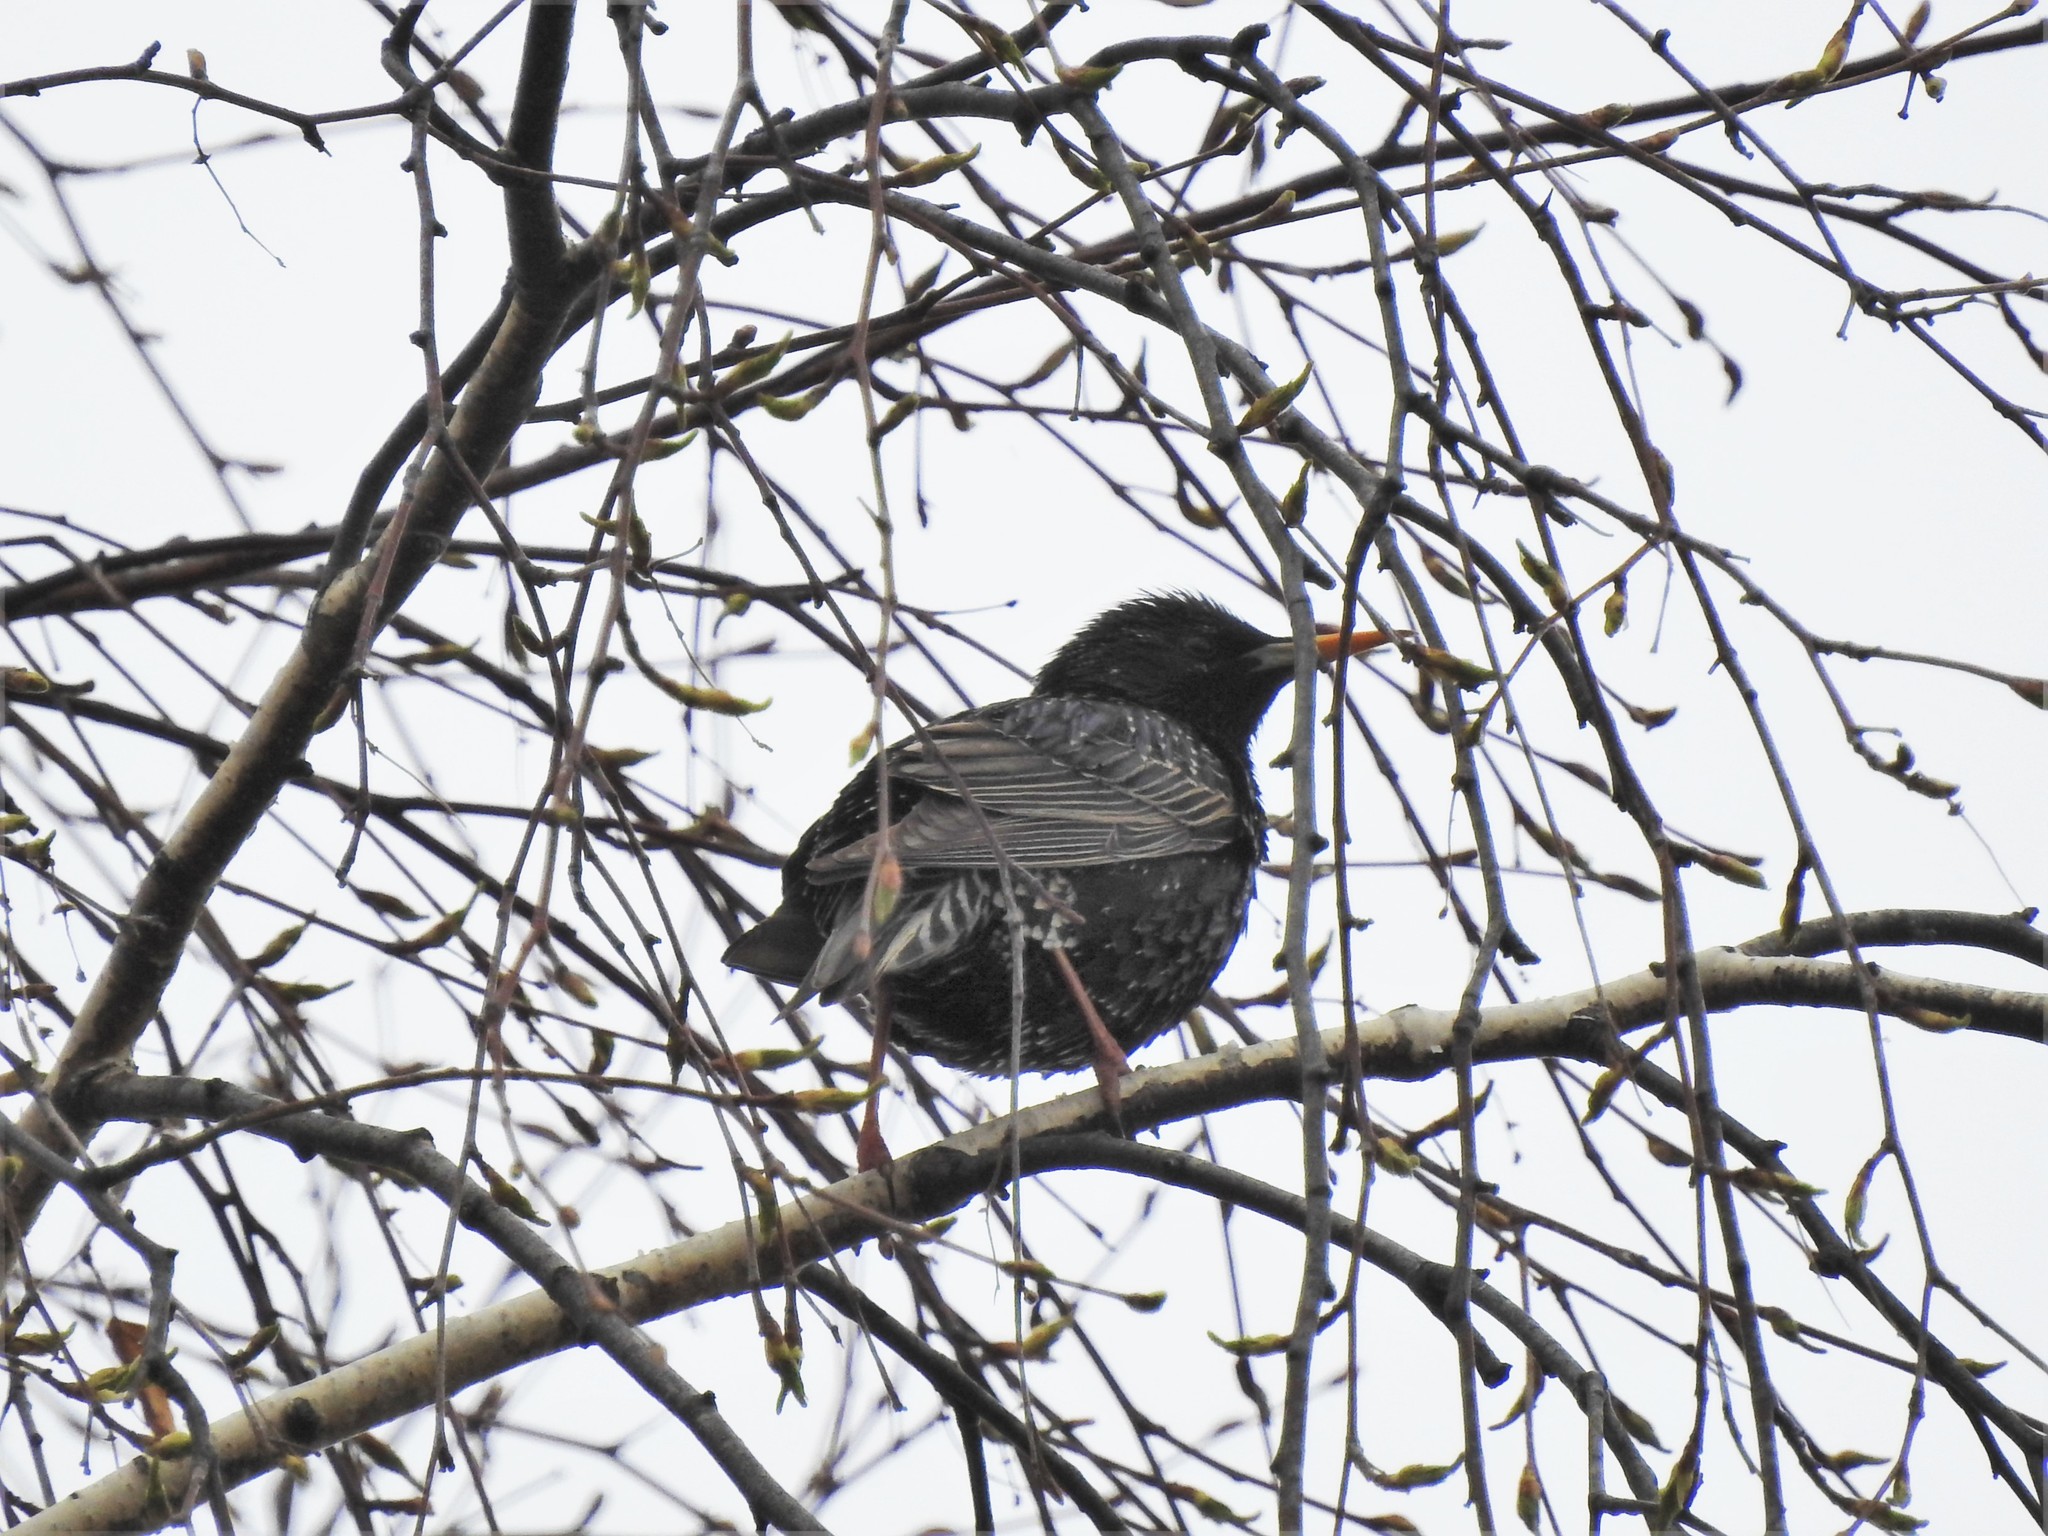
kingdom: Animalia
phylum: Chordata
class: Aves
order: Passeriformes
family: Sturnidae
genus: Sturnus
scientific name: Sturnus vulgaris
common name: Common starling
